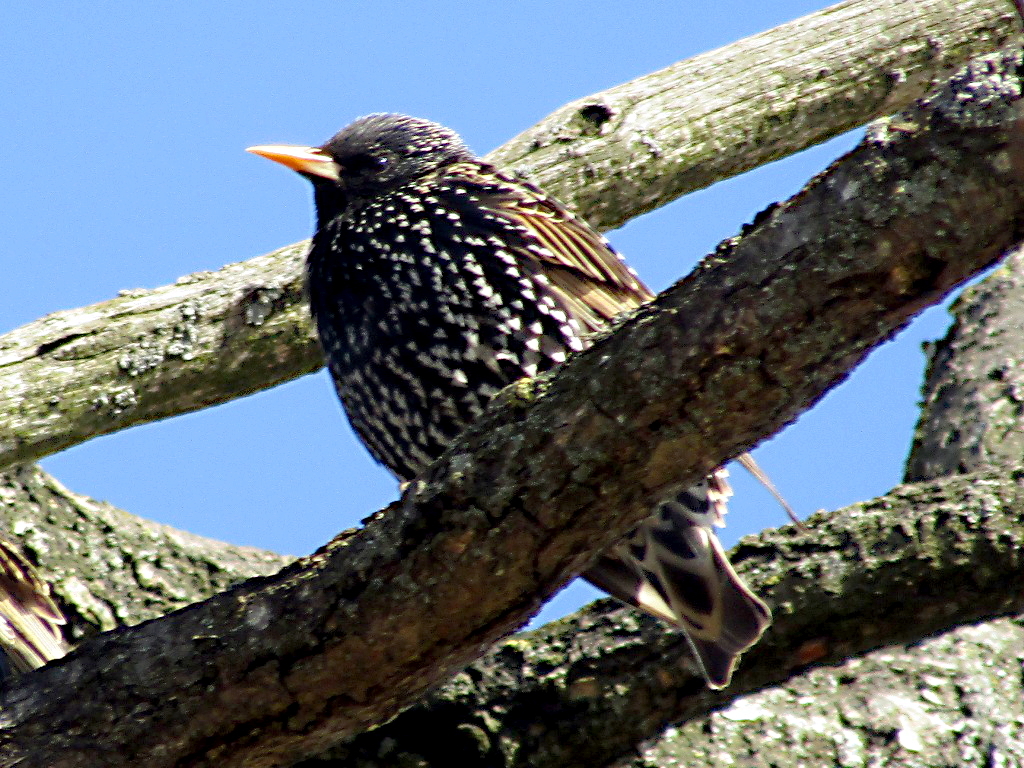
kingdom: Animalia
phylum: Chordata
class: Aves
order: Passeriformes
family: Sturnidae
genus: Sturnus
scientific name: Sturnus vulgaris
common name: Common starling
